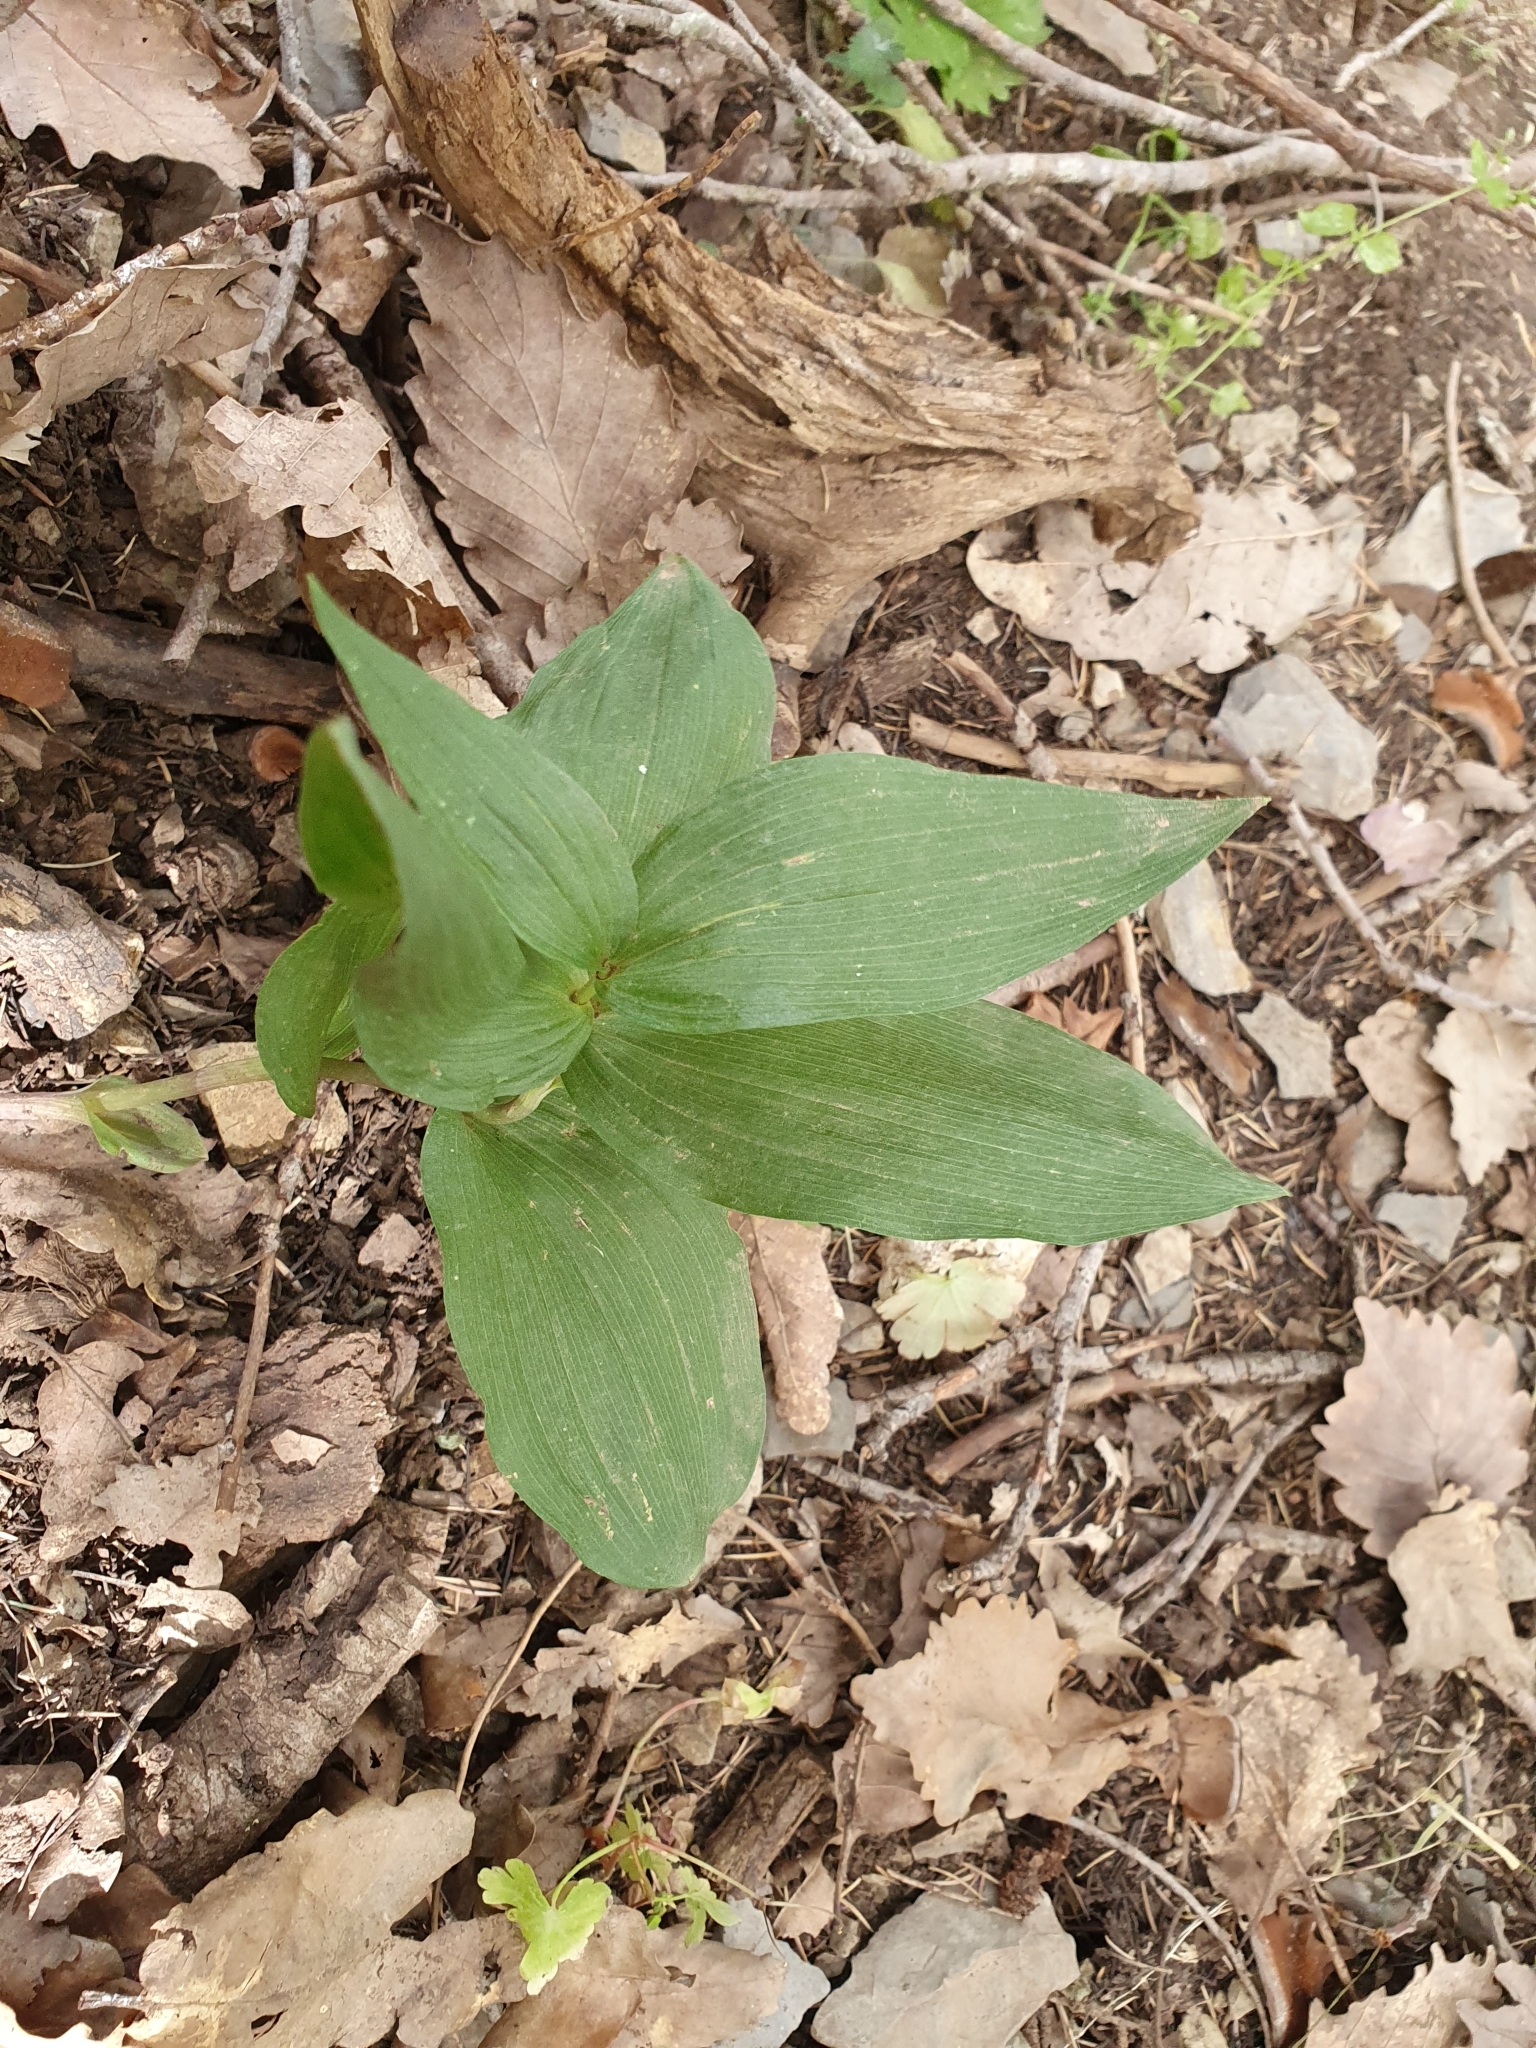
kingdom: Plantae
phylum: Tracheophyta
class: Liliopsida
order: Asparagales
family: Orchidaceae
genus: Epipactis
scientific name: Epipactis helleborine
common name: Broad-leaved helleborine
